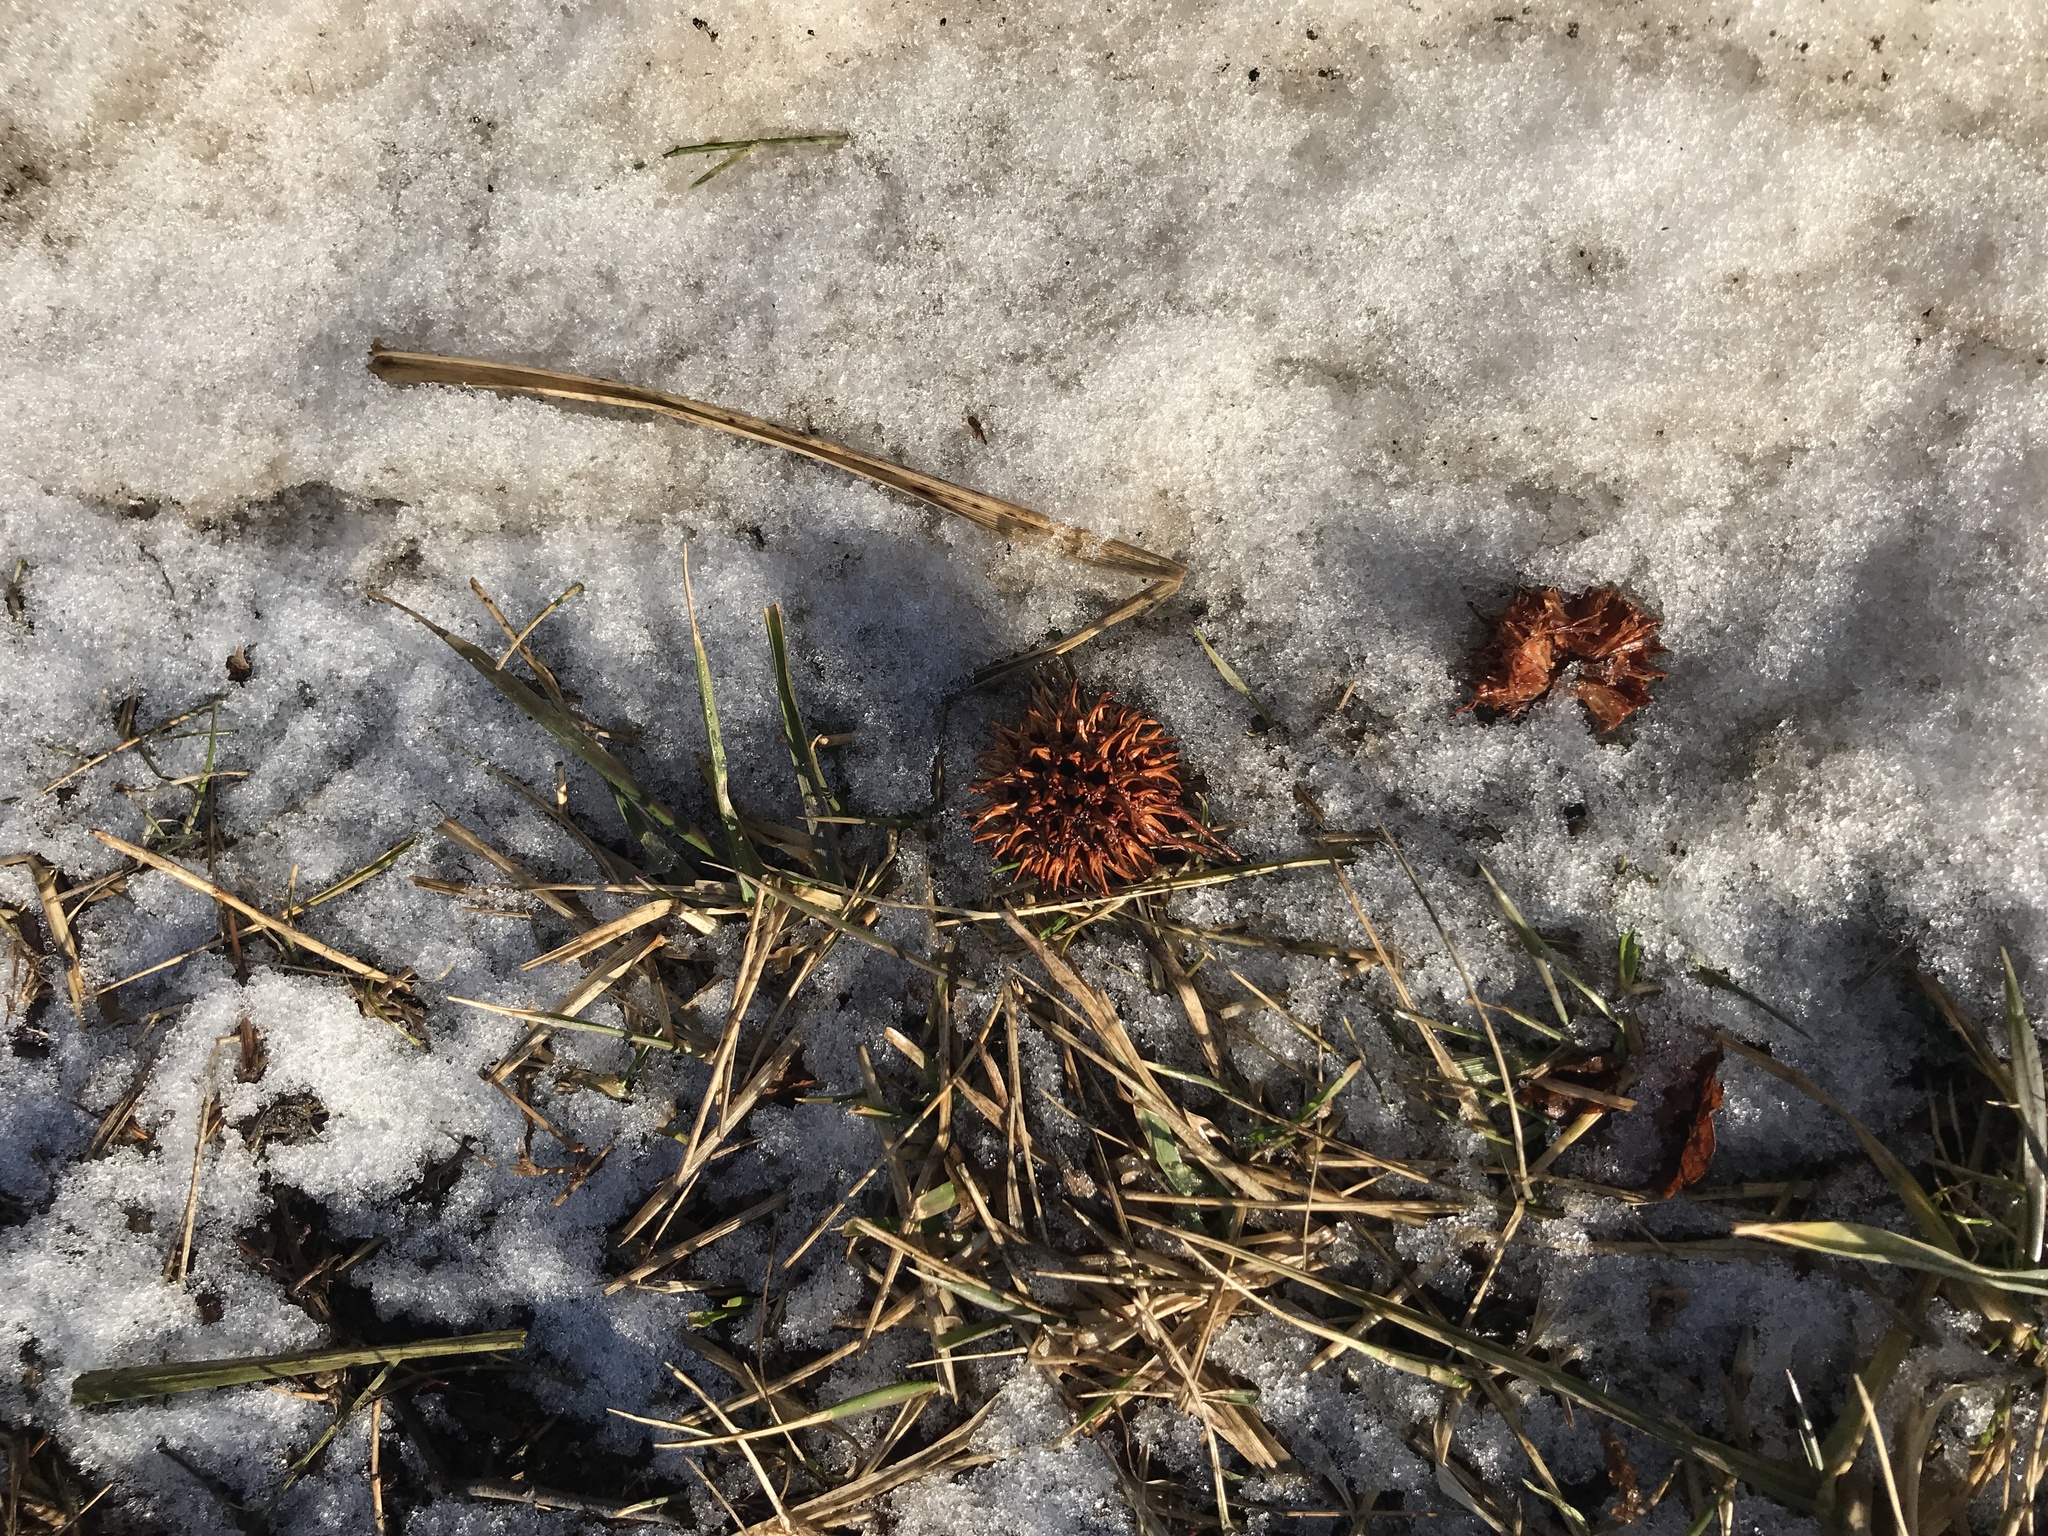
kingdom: Plantae
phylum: Tracheophyta
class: Magnoliopsida
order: Saxifragales
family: Altingiaceae
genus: Liquidambar
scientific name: Liquidambar styraciflua
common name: Sweet gum
